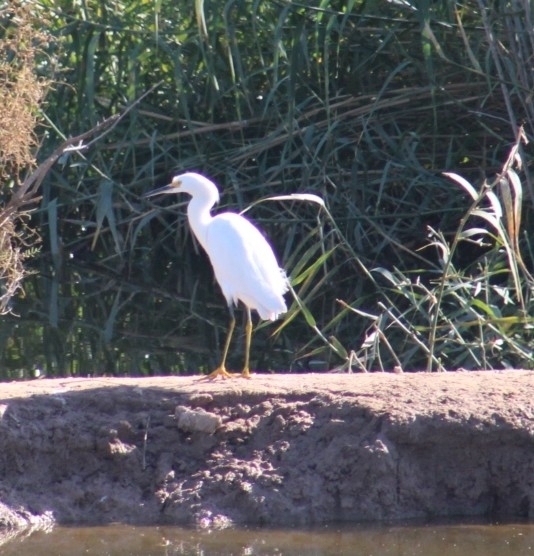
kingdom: Animalia
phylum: Chordata
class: Aves
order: Pelecaniformes
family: Ardeidae
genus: Egretta
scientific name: Egretta thula
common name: Snowy egret
